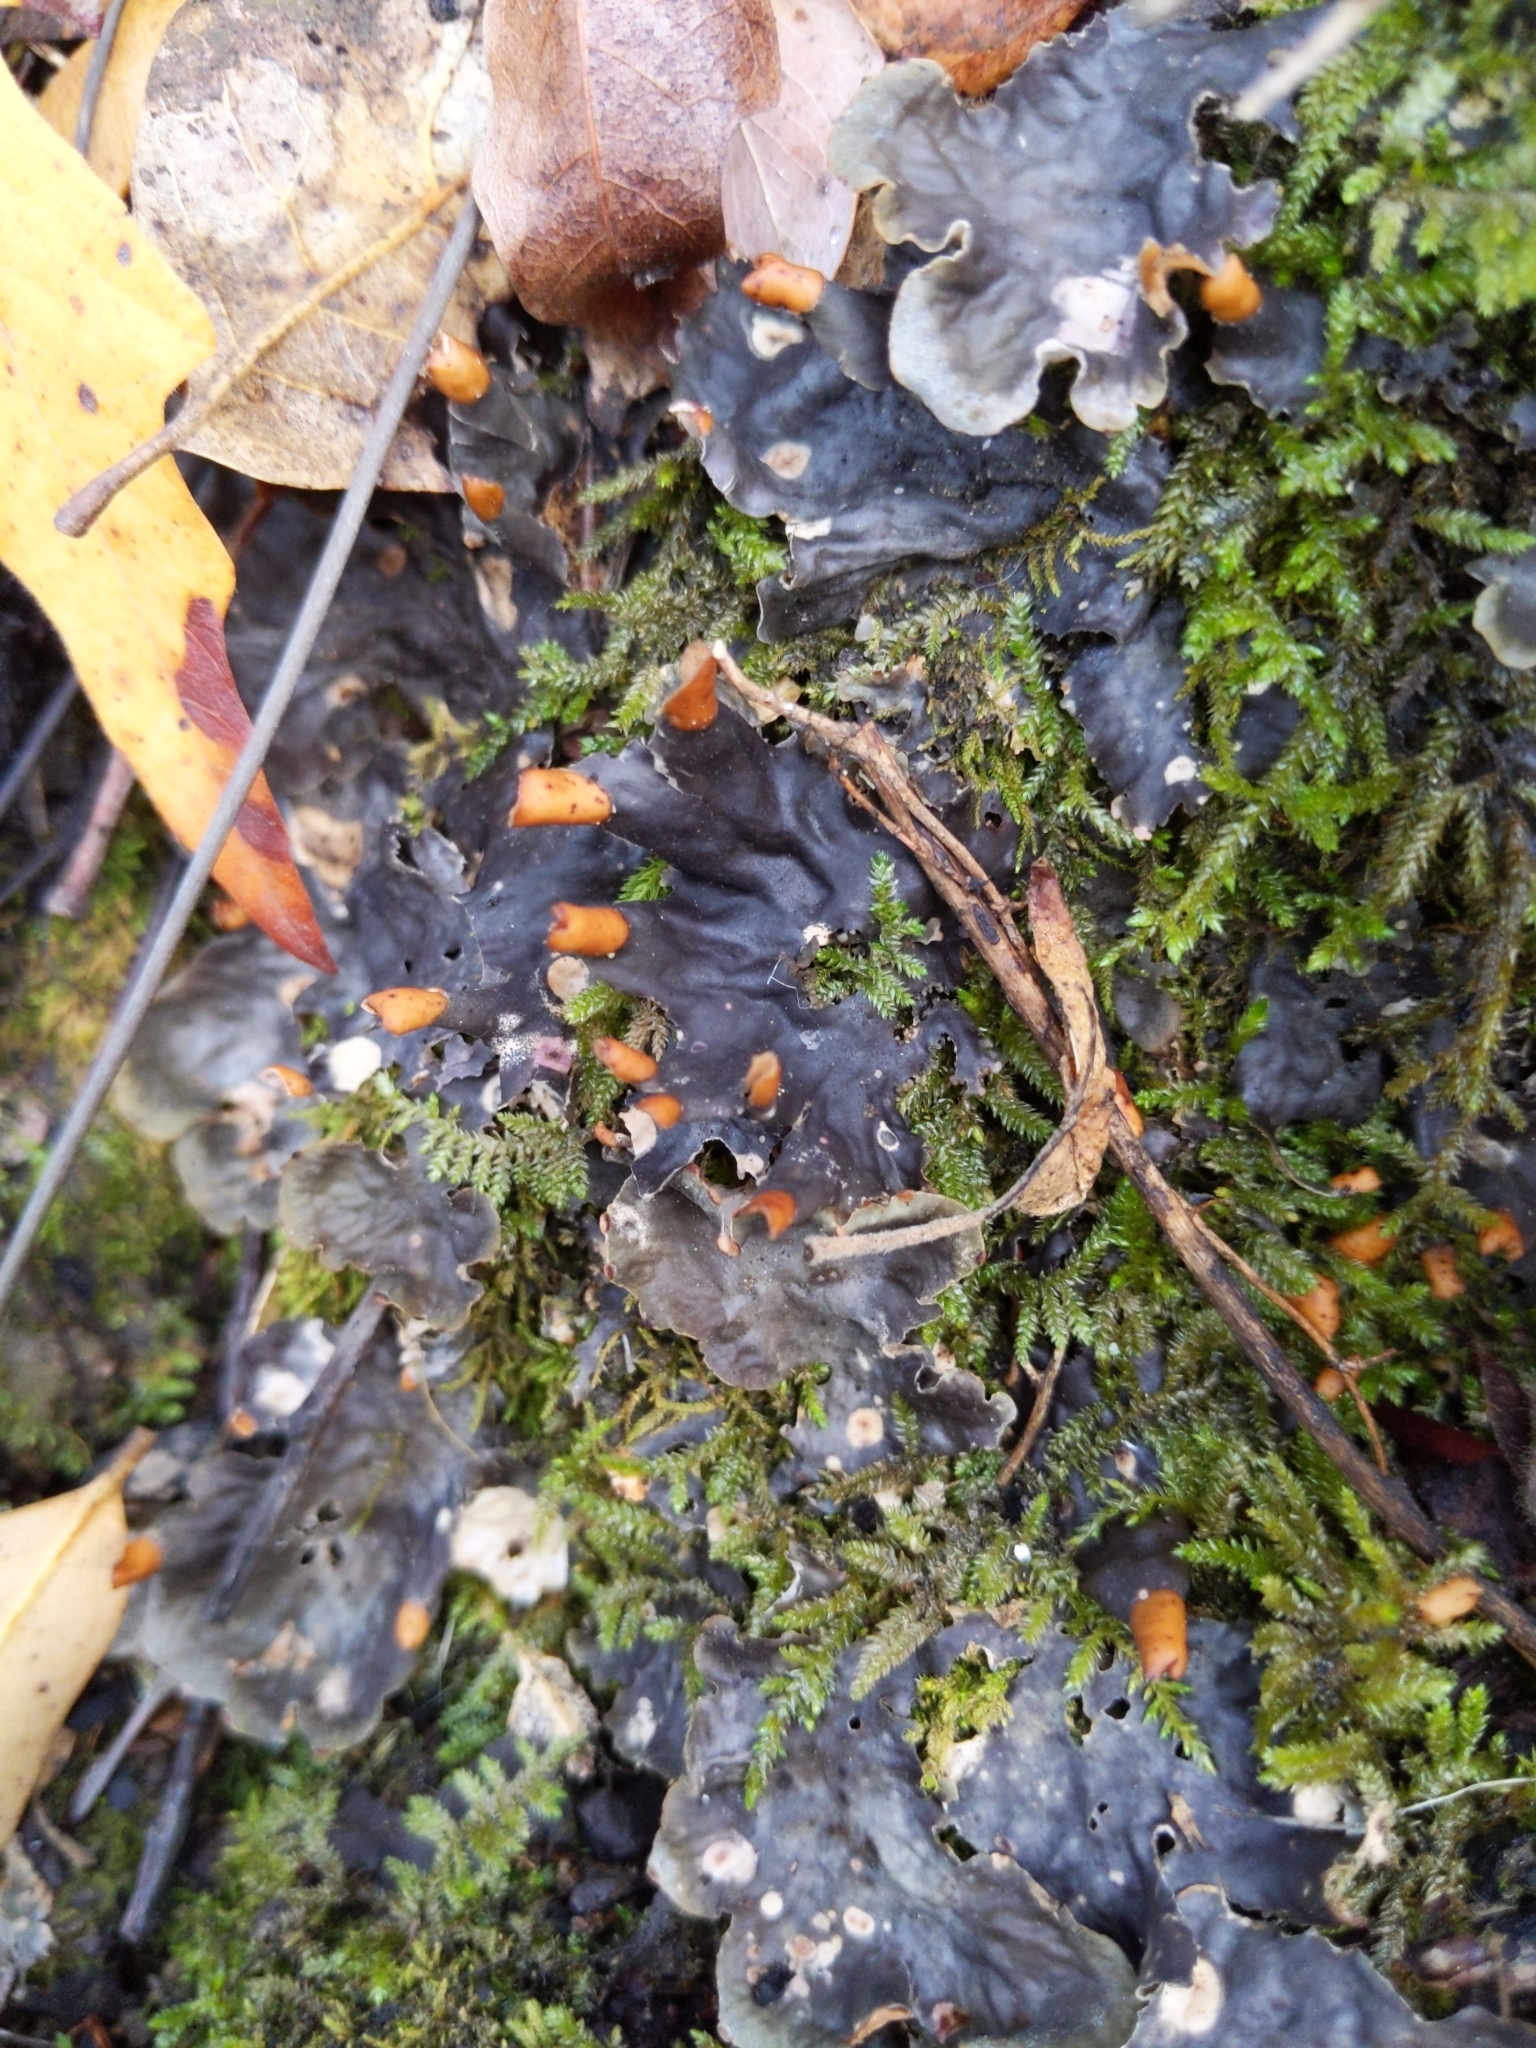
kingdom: Fungi
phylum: Ascomycota
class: Lecanoromycetes
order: Peltigerales
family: Peltigeraceae
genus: Peltigera
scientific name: Peltigera membranacea
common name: Membranous pelt lichen
